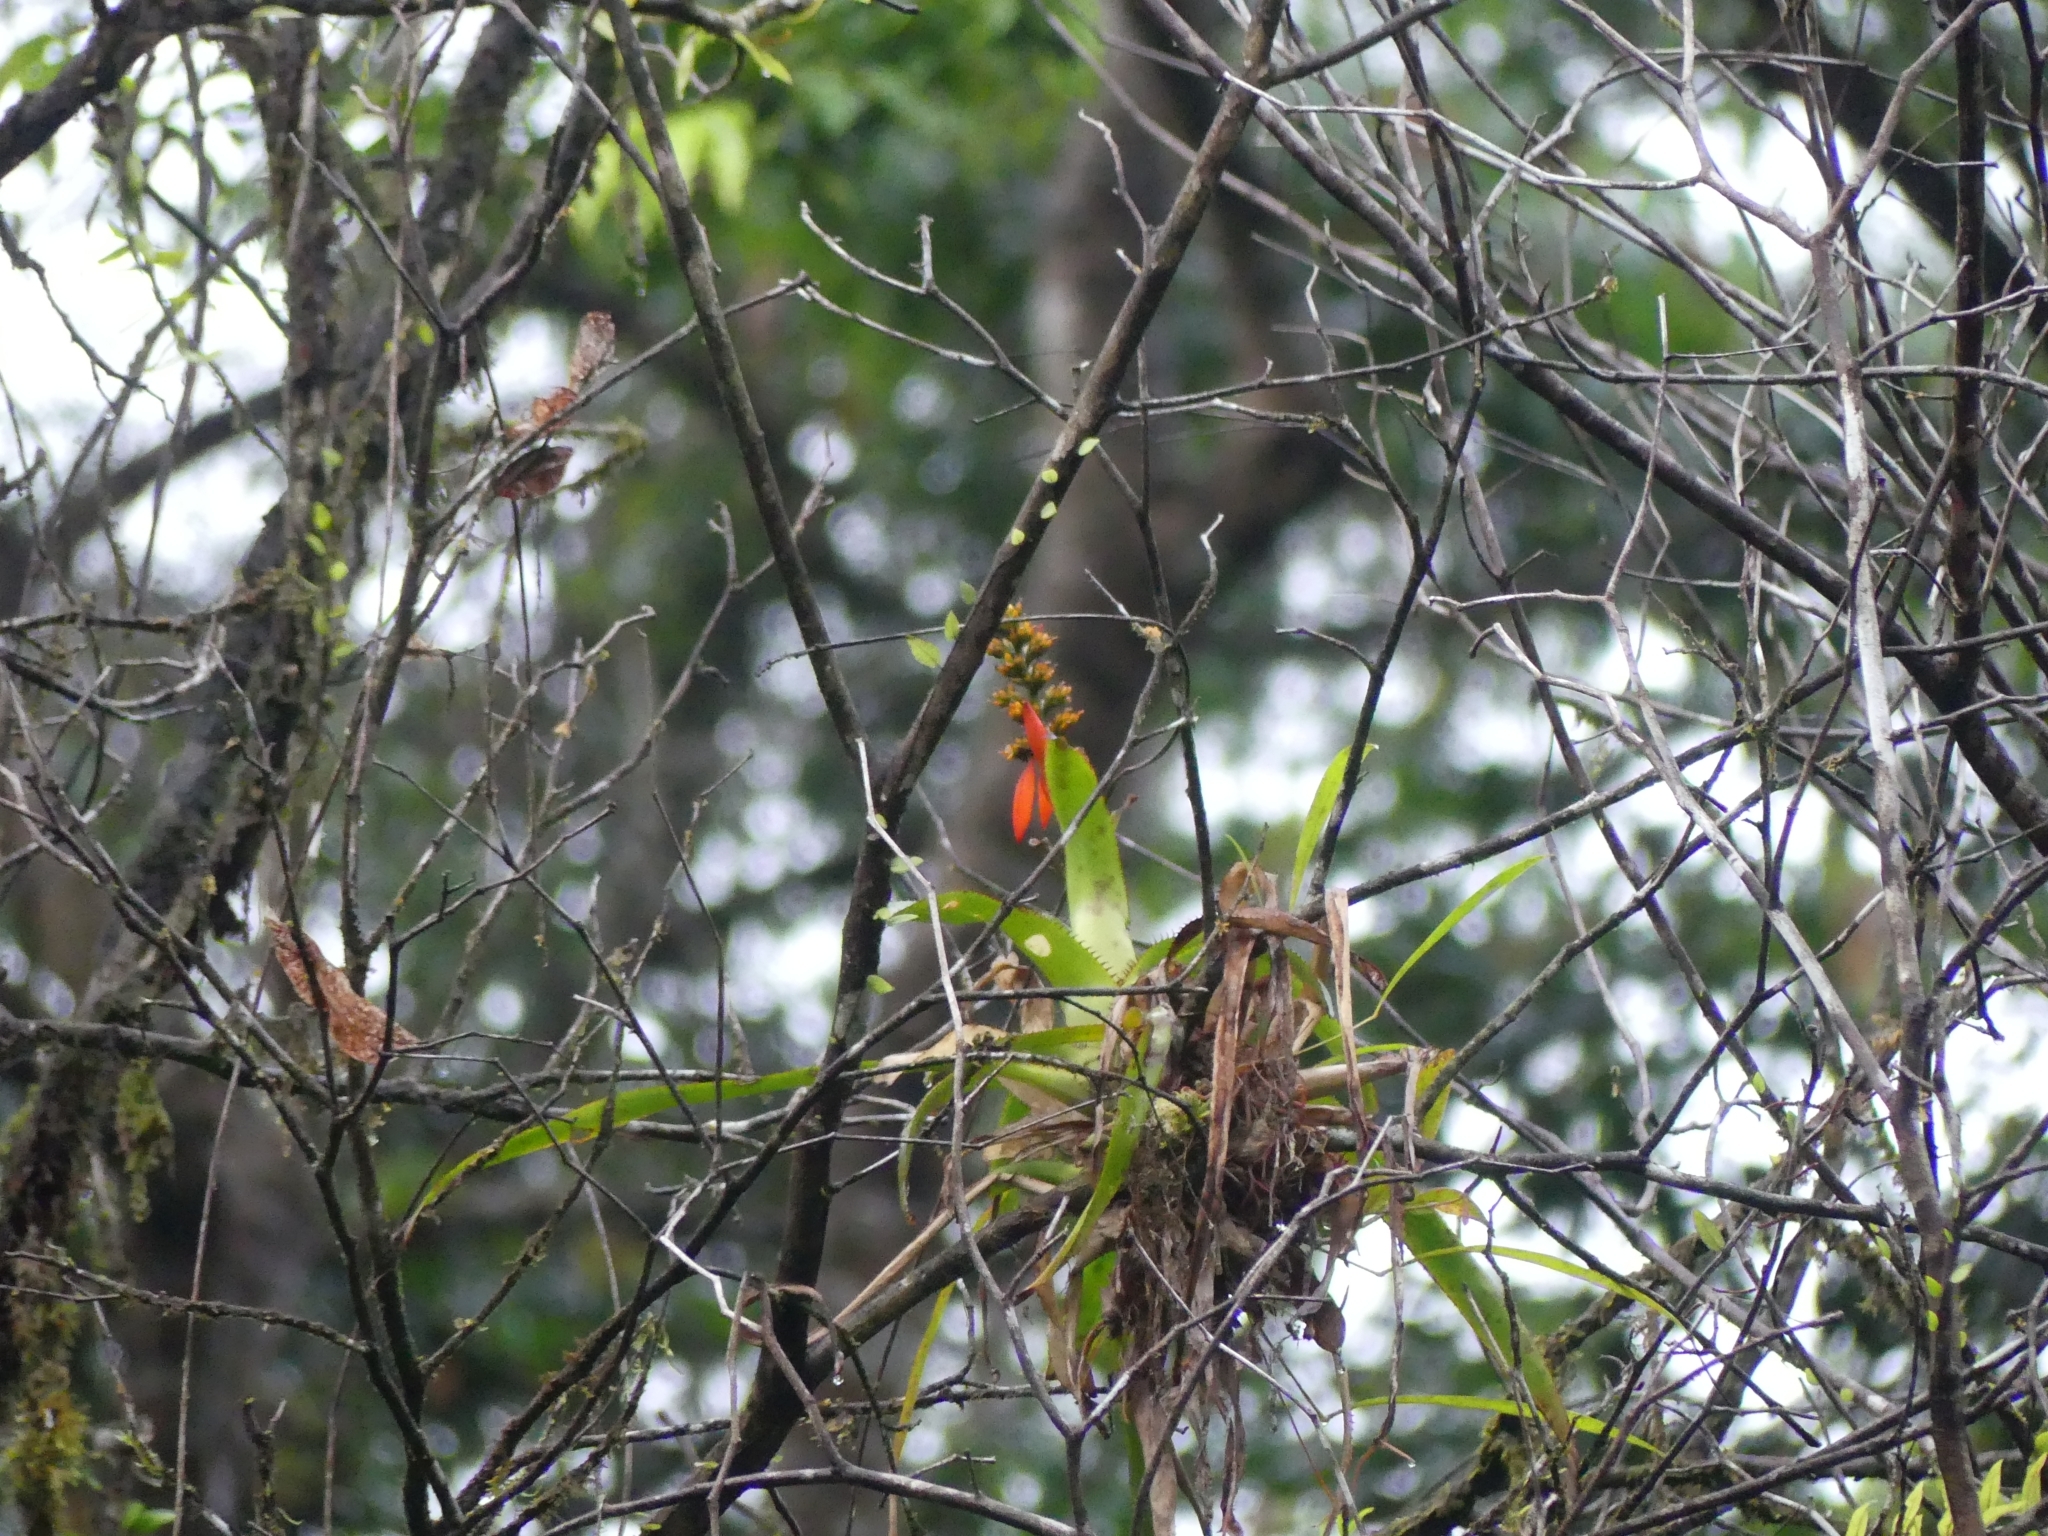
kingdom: Plantae
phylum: Tracheophyta
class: Liliopsida
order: Poales
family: Bromeliaceae
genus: Aechmea
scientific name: Aechmea mertensii
